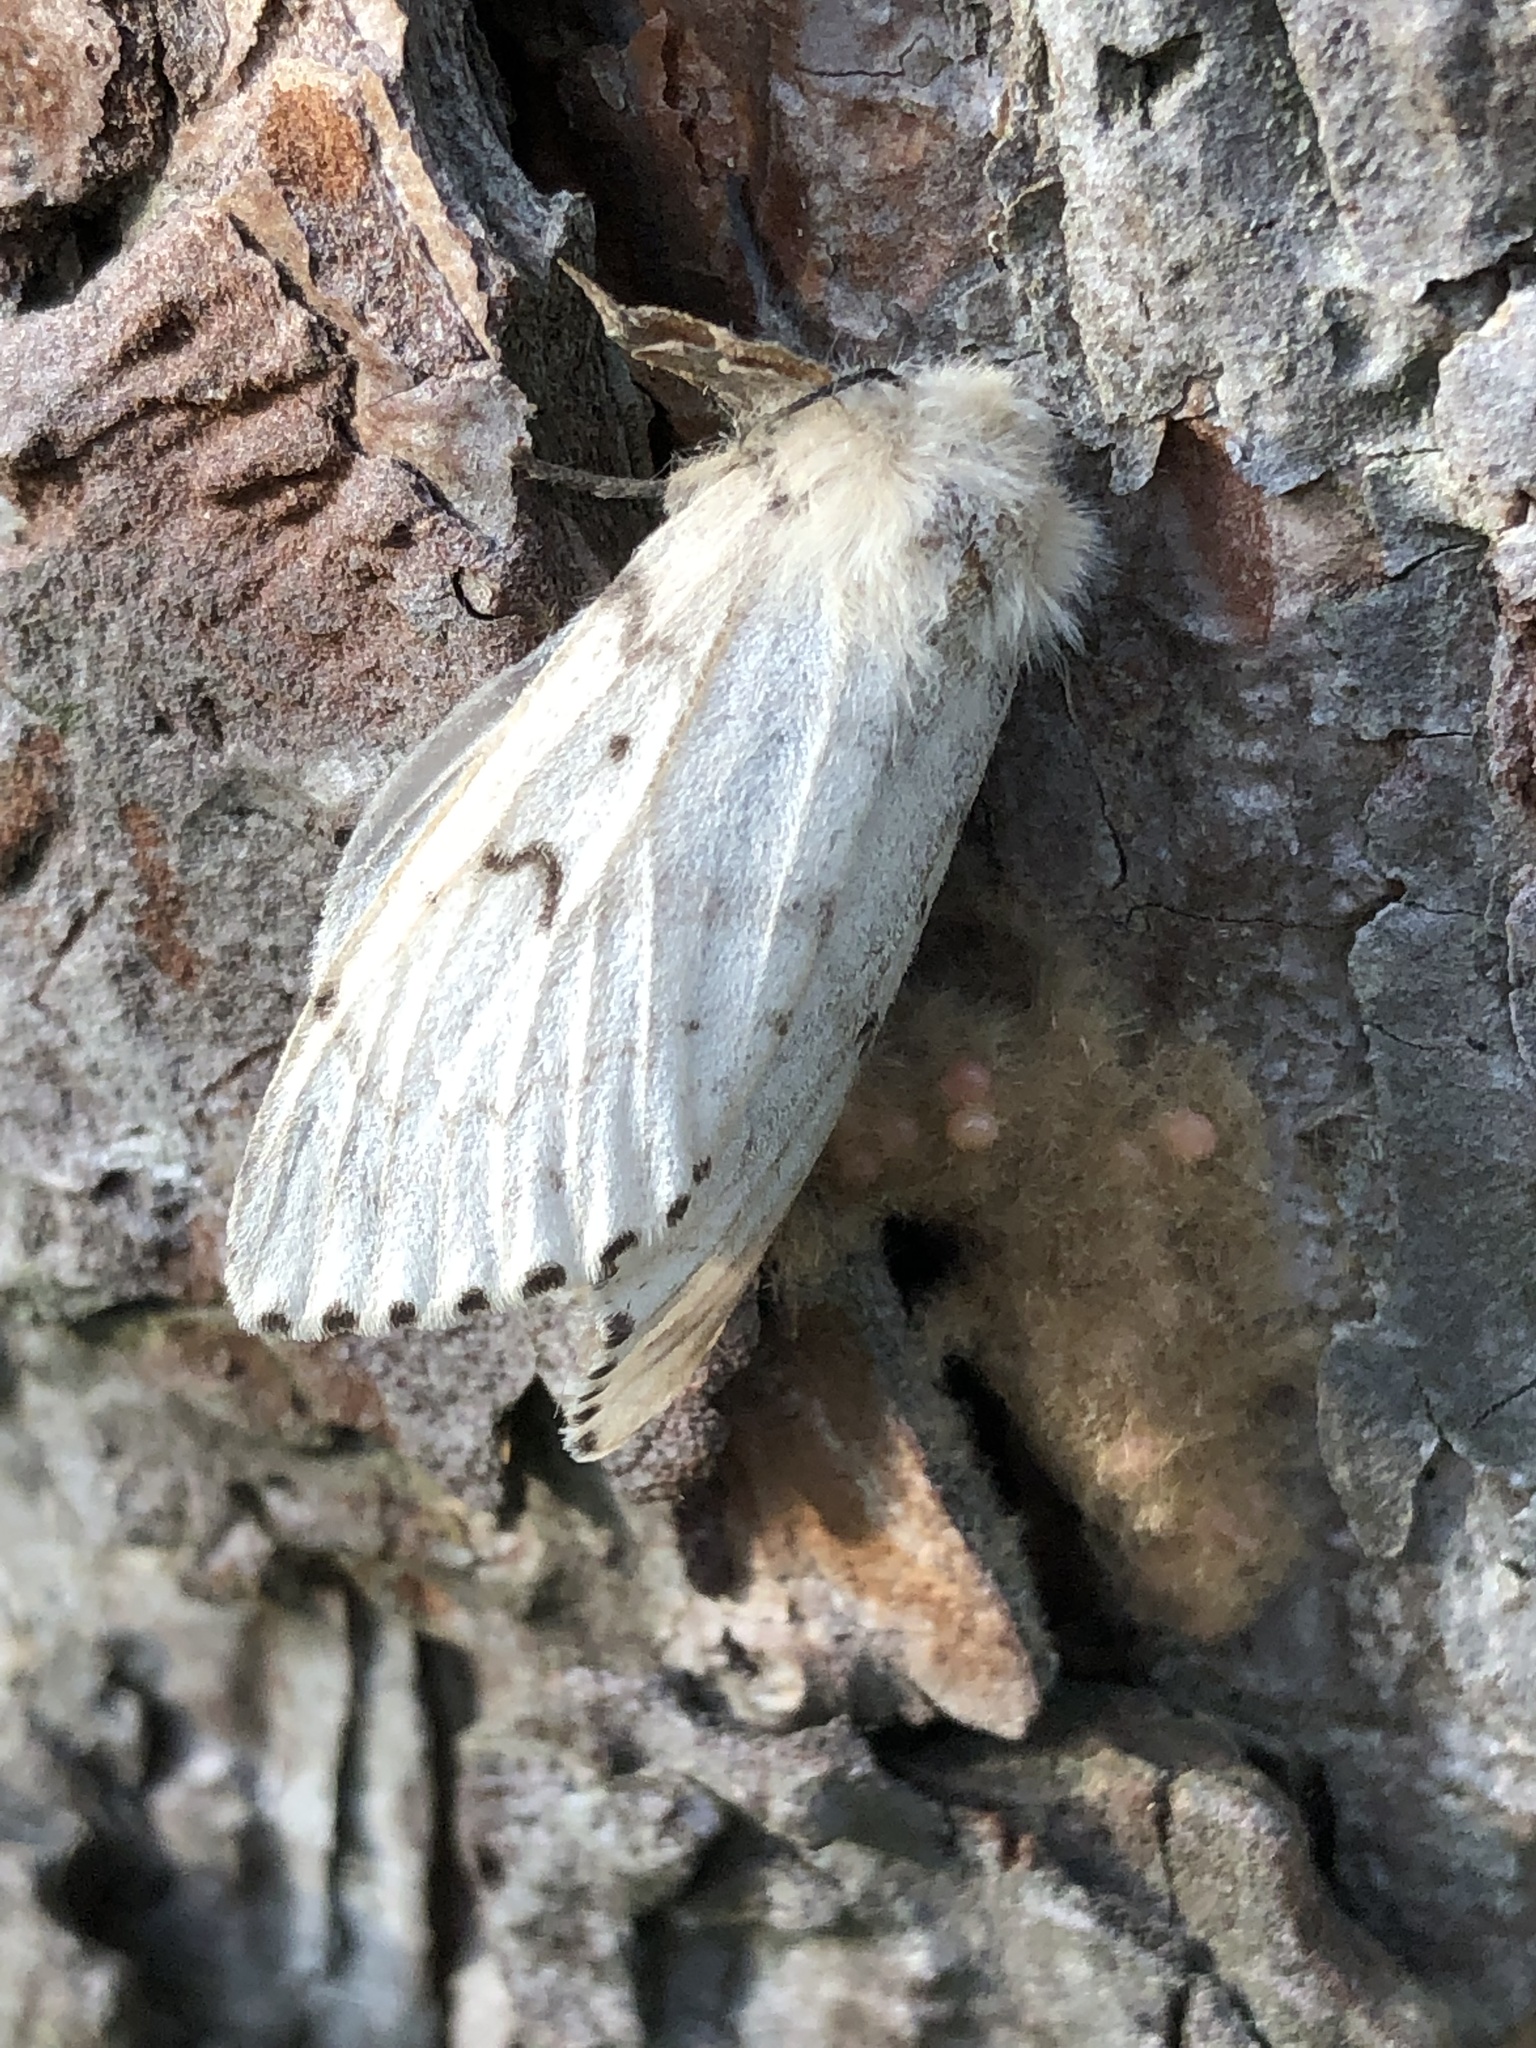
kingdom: Animalia
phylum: Arthropoda
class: Insecta
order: Lepidoptera
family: Erebidae
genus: Lymantria
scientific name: Lymantria dispar
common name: Gypsy moth
